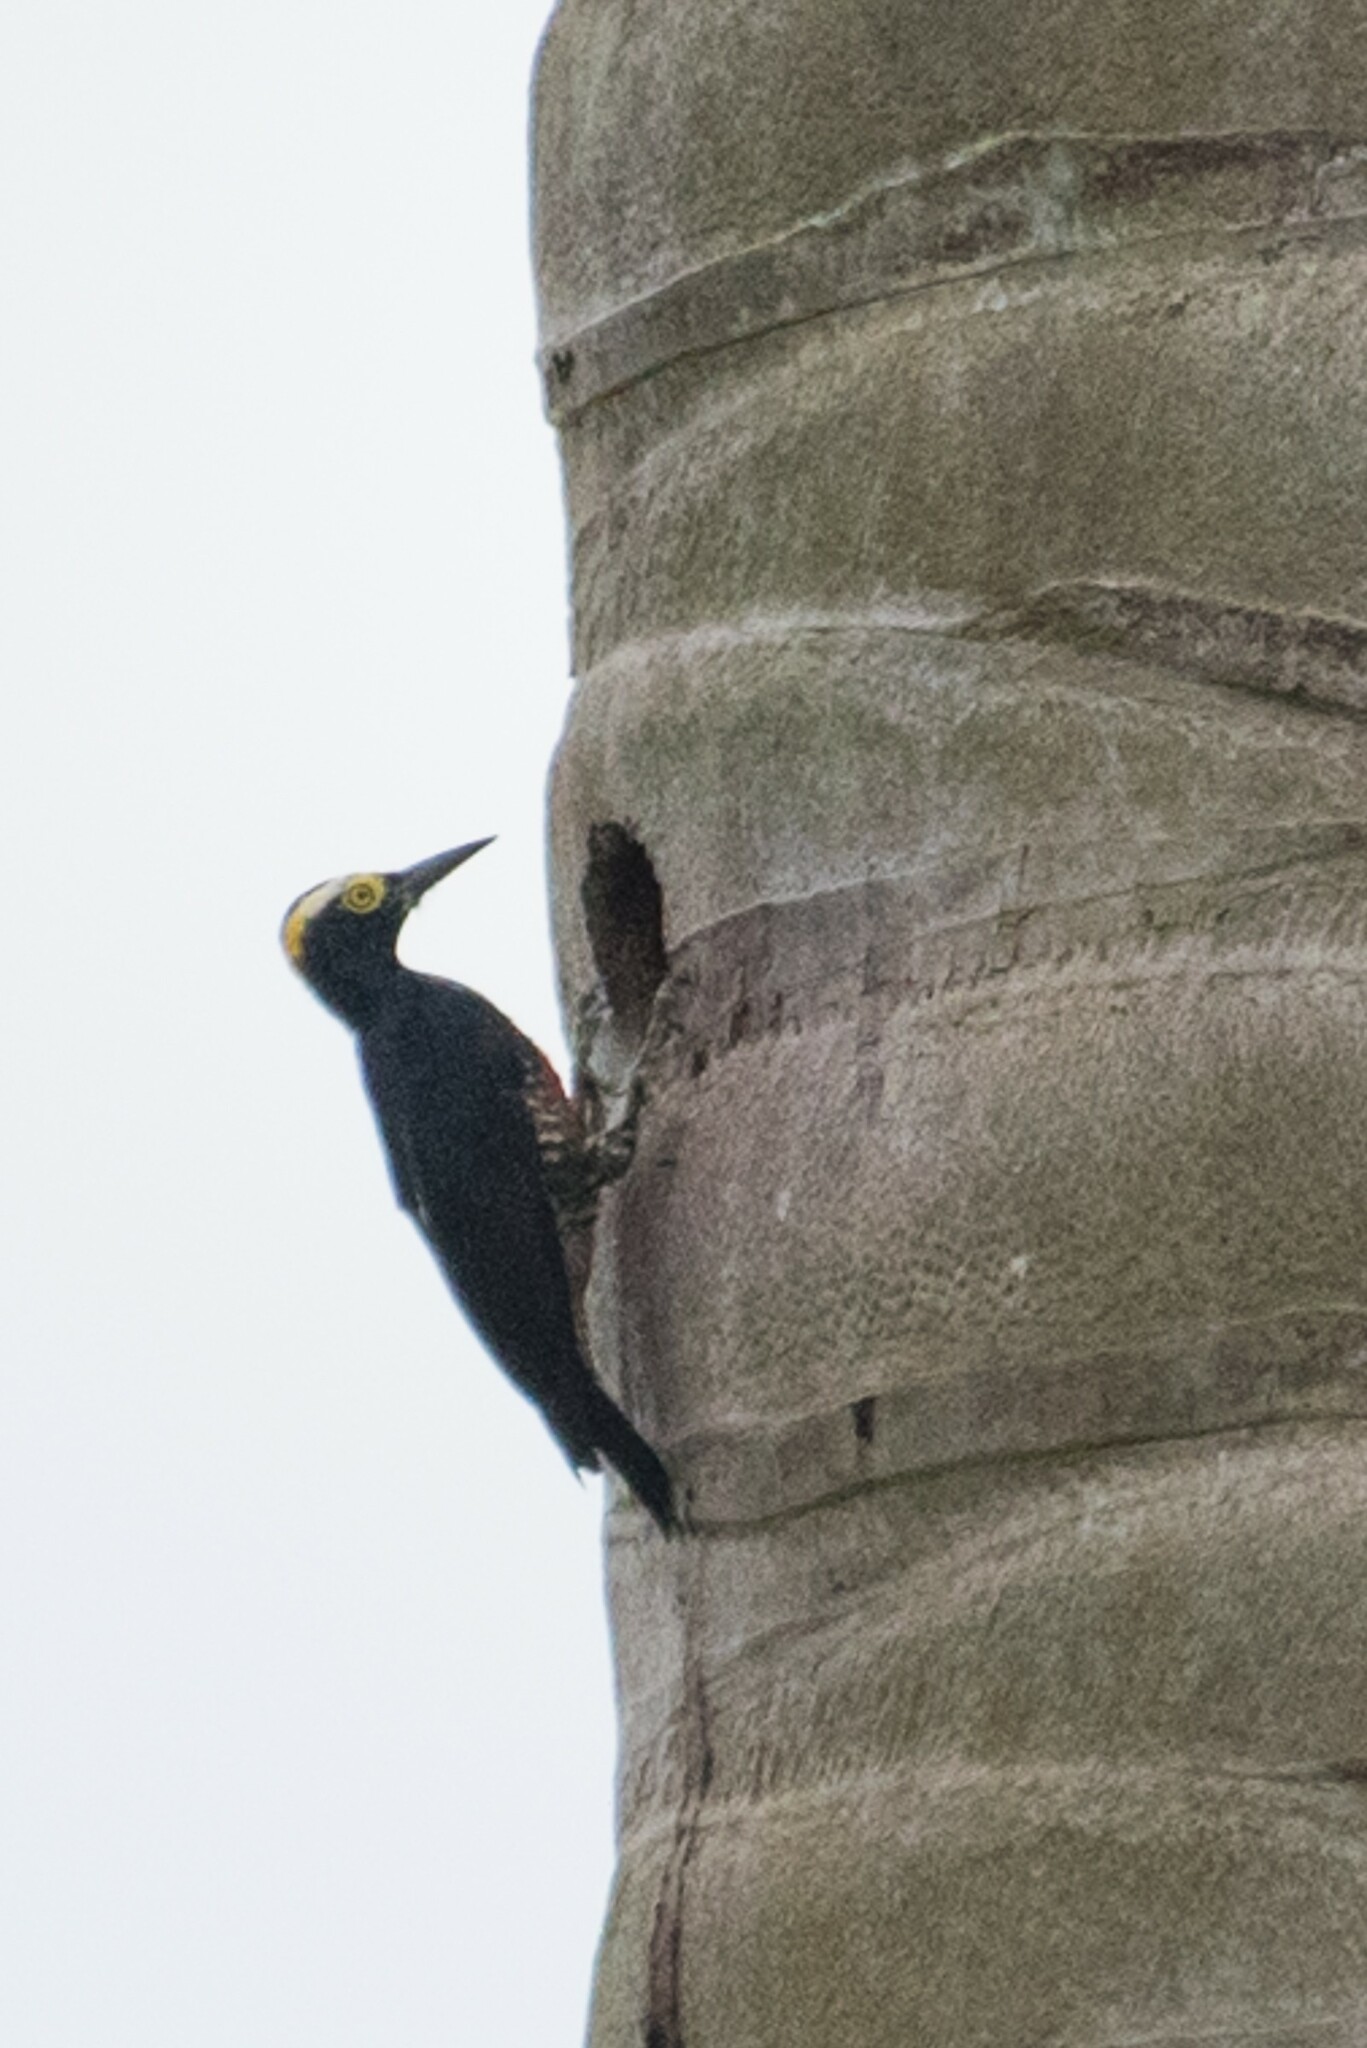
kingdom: Animalia
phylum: Chordata
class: Aves
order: Piciformes
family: Picidae
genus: Melanerpes
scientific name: Melanerpes cruentatus
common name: Yellow-tufted woodpecker
